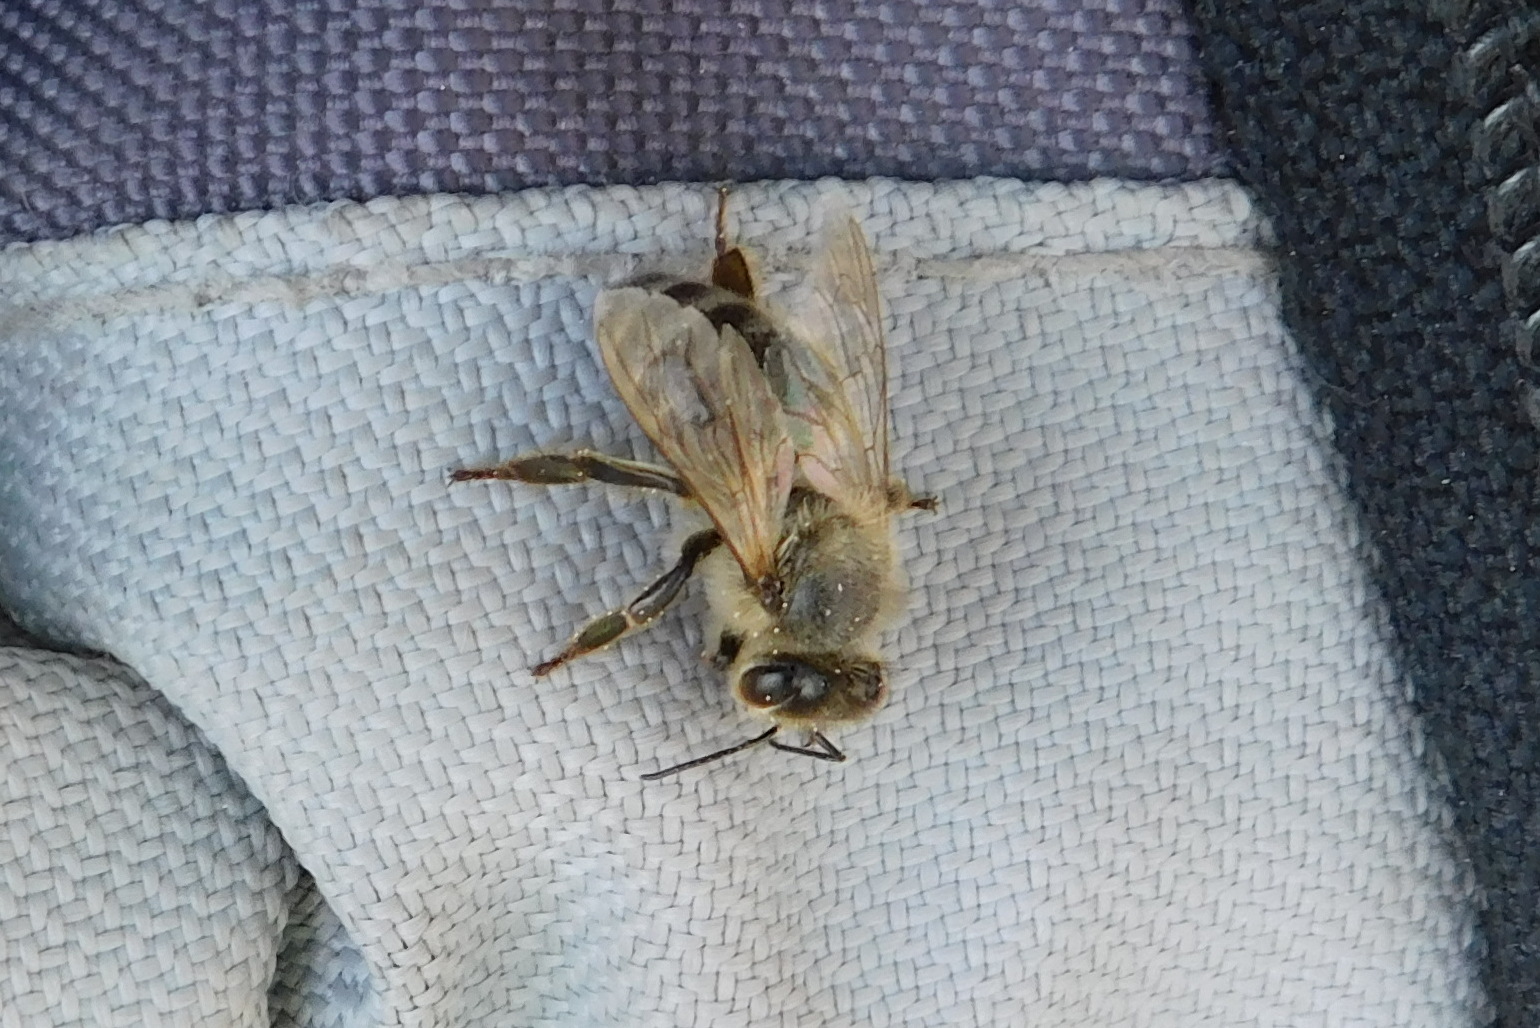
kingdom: Animalia
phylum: Arthropoda
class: Insecta
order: Hymenoptera
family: Apidae
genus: Apis
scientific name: Apis mellifera
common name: Honey bee
